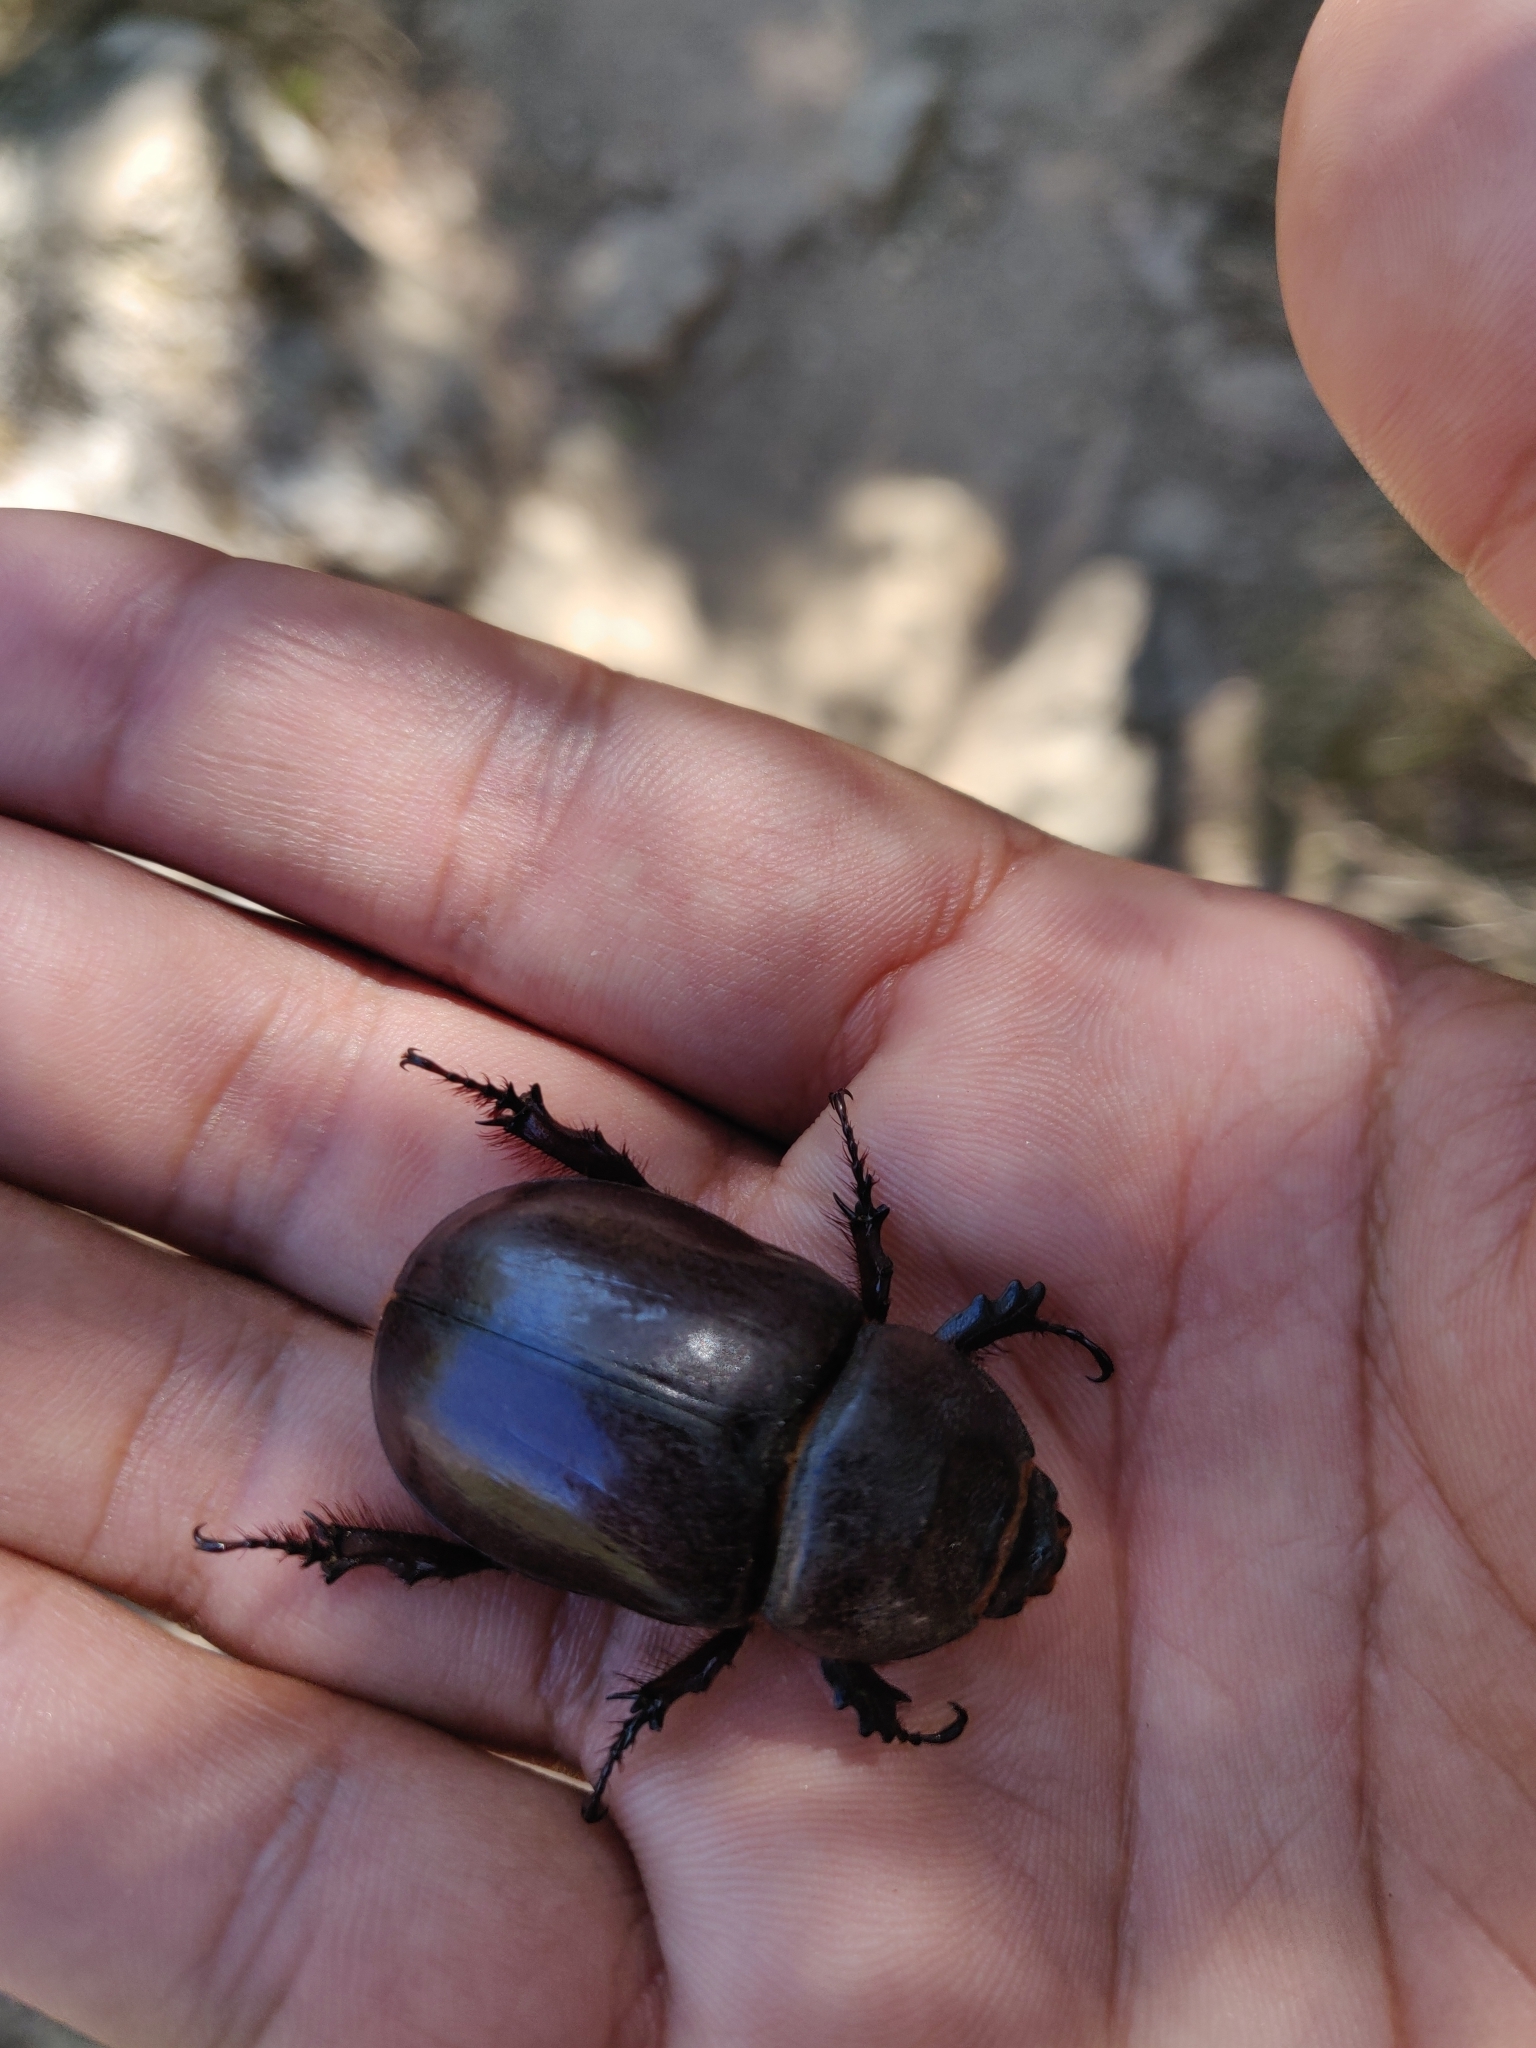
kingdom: Animalia
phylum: Arthropoda
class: Insecta
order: Coleoptera
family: Scarabaeidae
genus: Oryctes
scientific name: Oryctes nasicornis
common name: European rhinoceros beetle
